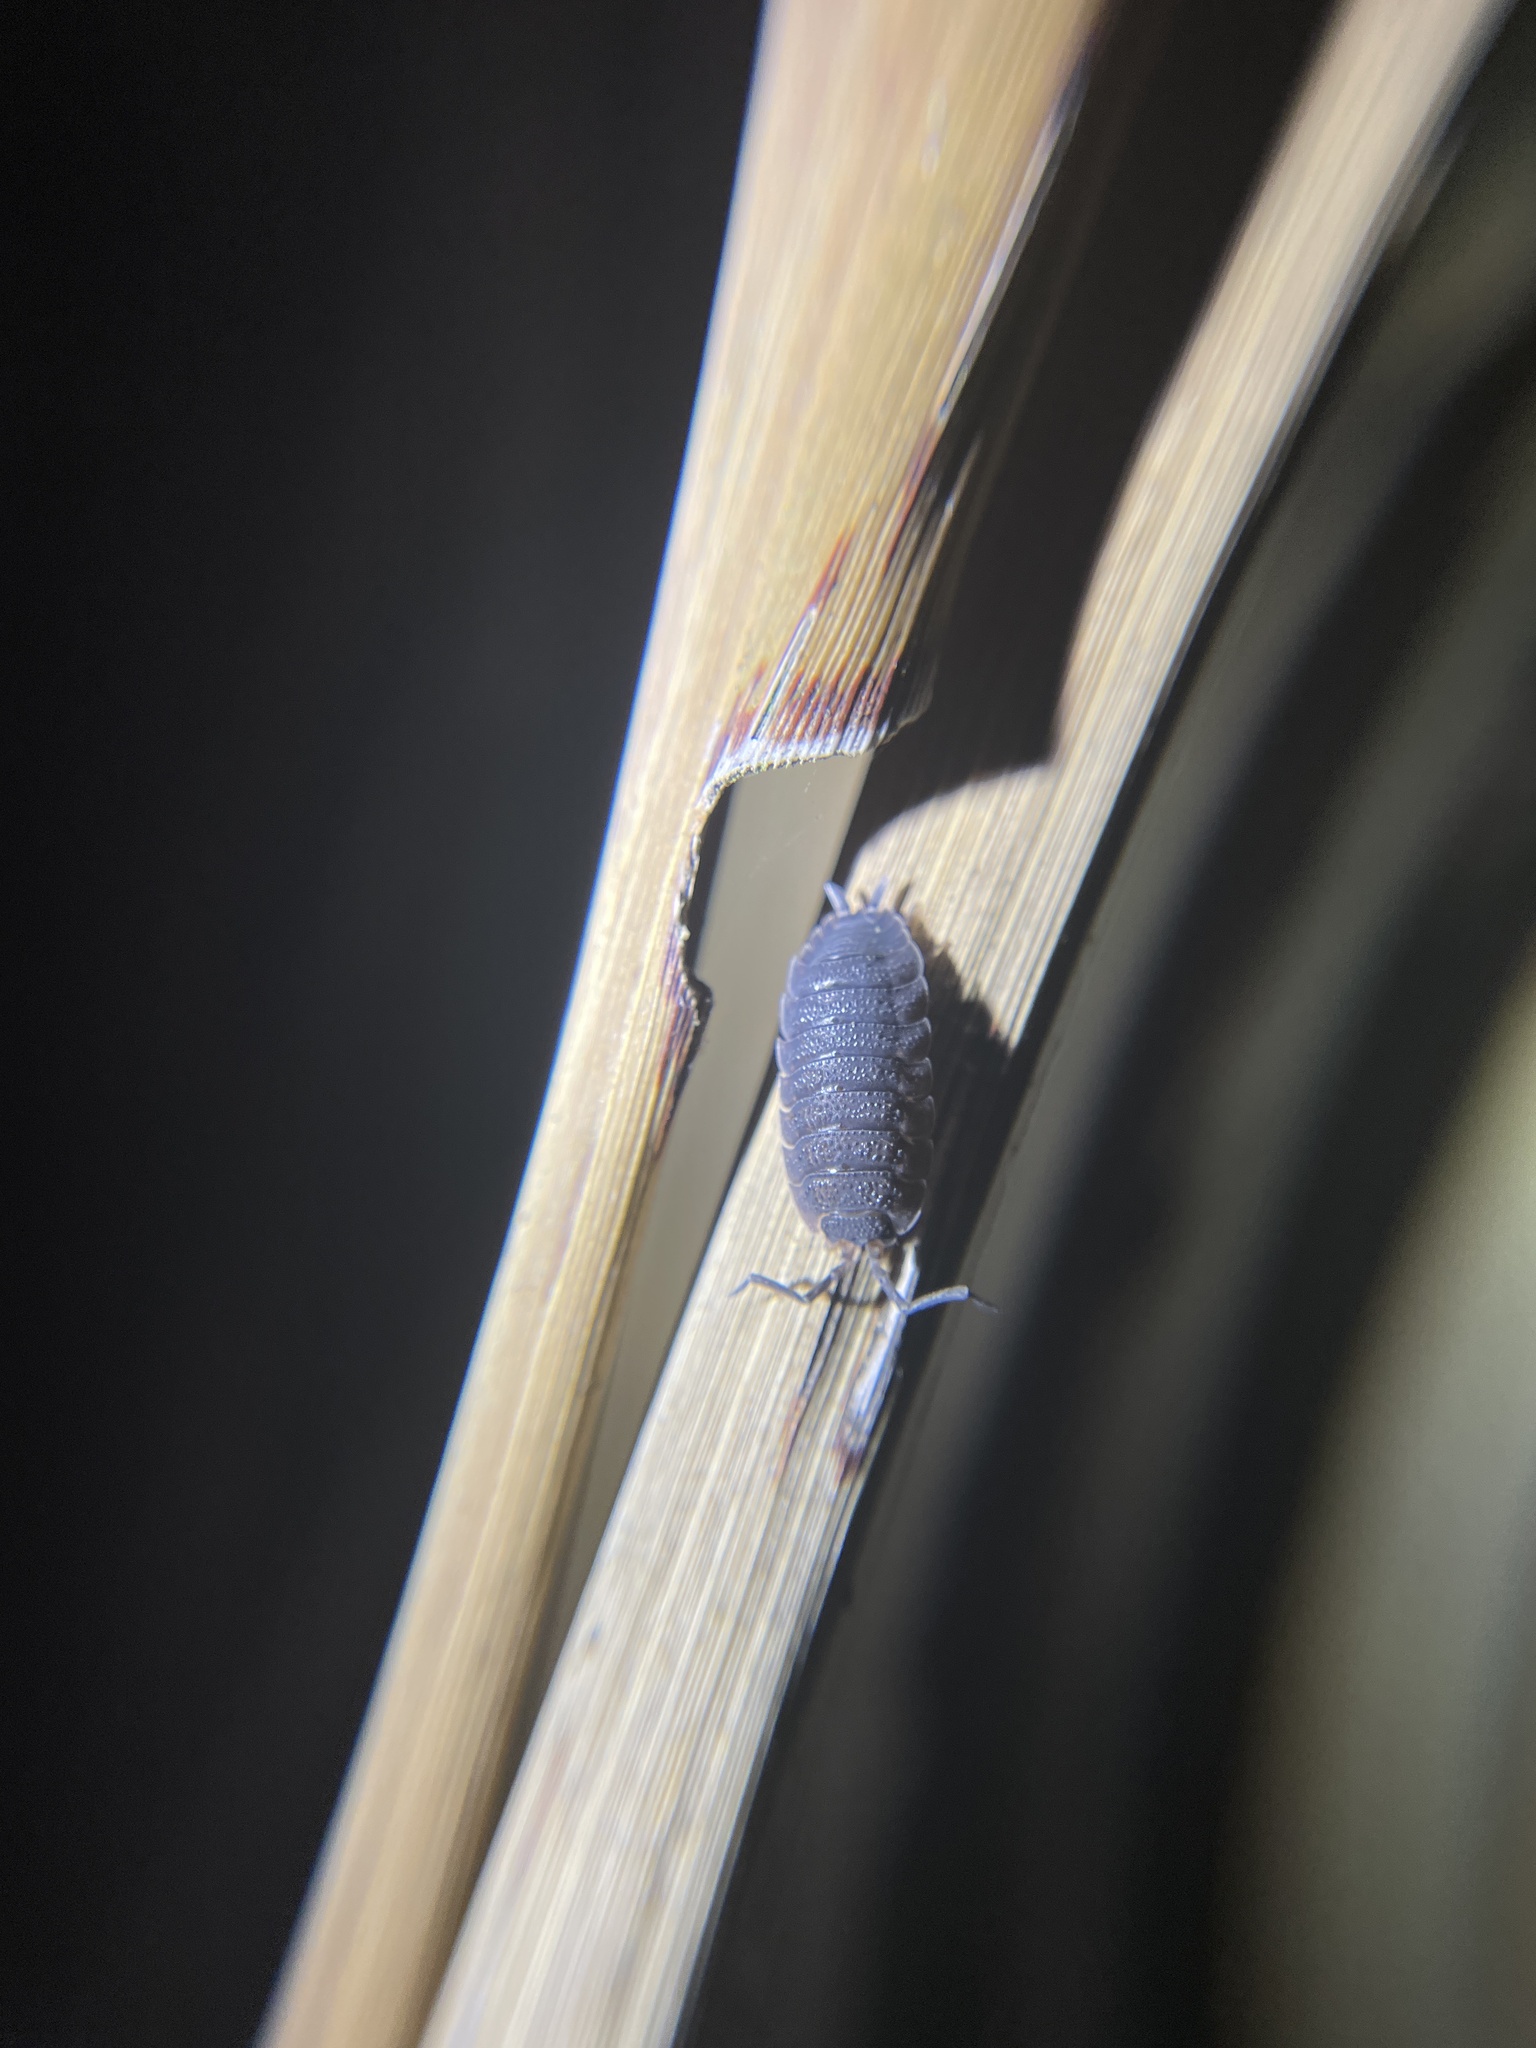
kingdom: Animalia
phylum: Arthropoda
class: Malacostraca
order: Isopoda
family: Porcellionidae
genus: Porcellio
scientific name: Porcellio scaber
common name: Common rough woodlouse
